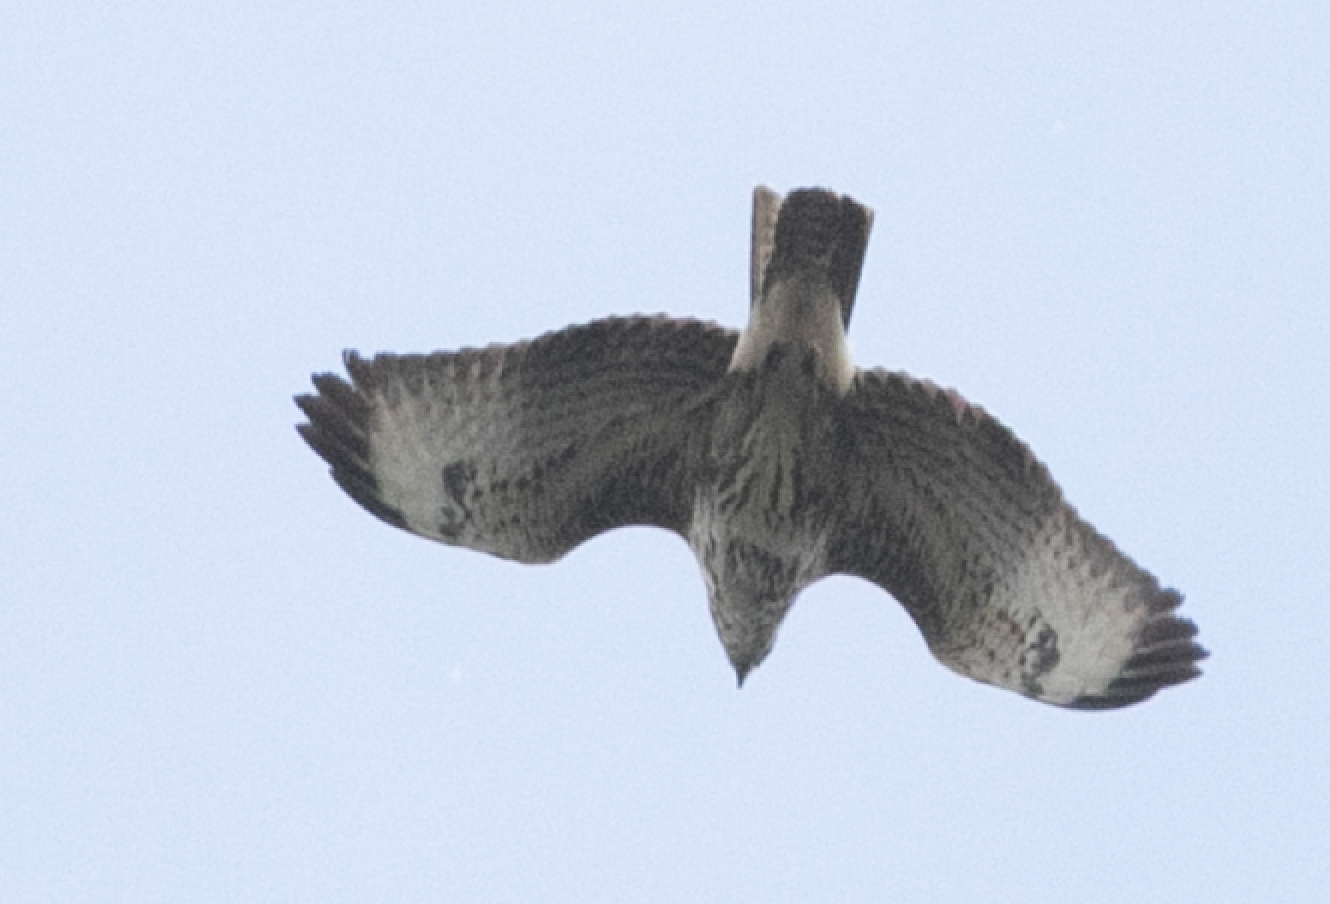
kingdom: Animalia
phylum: Chordata
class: Aves
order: Accipitriformes
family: Accipitridae
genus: Buteo
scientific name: Buteo buteo
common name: Common buzzard
